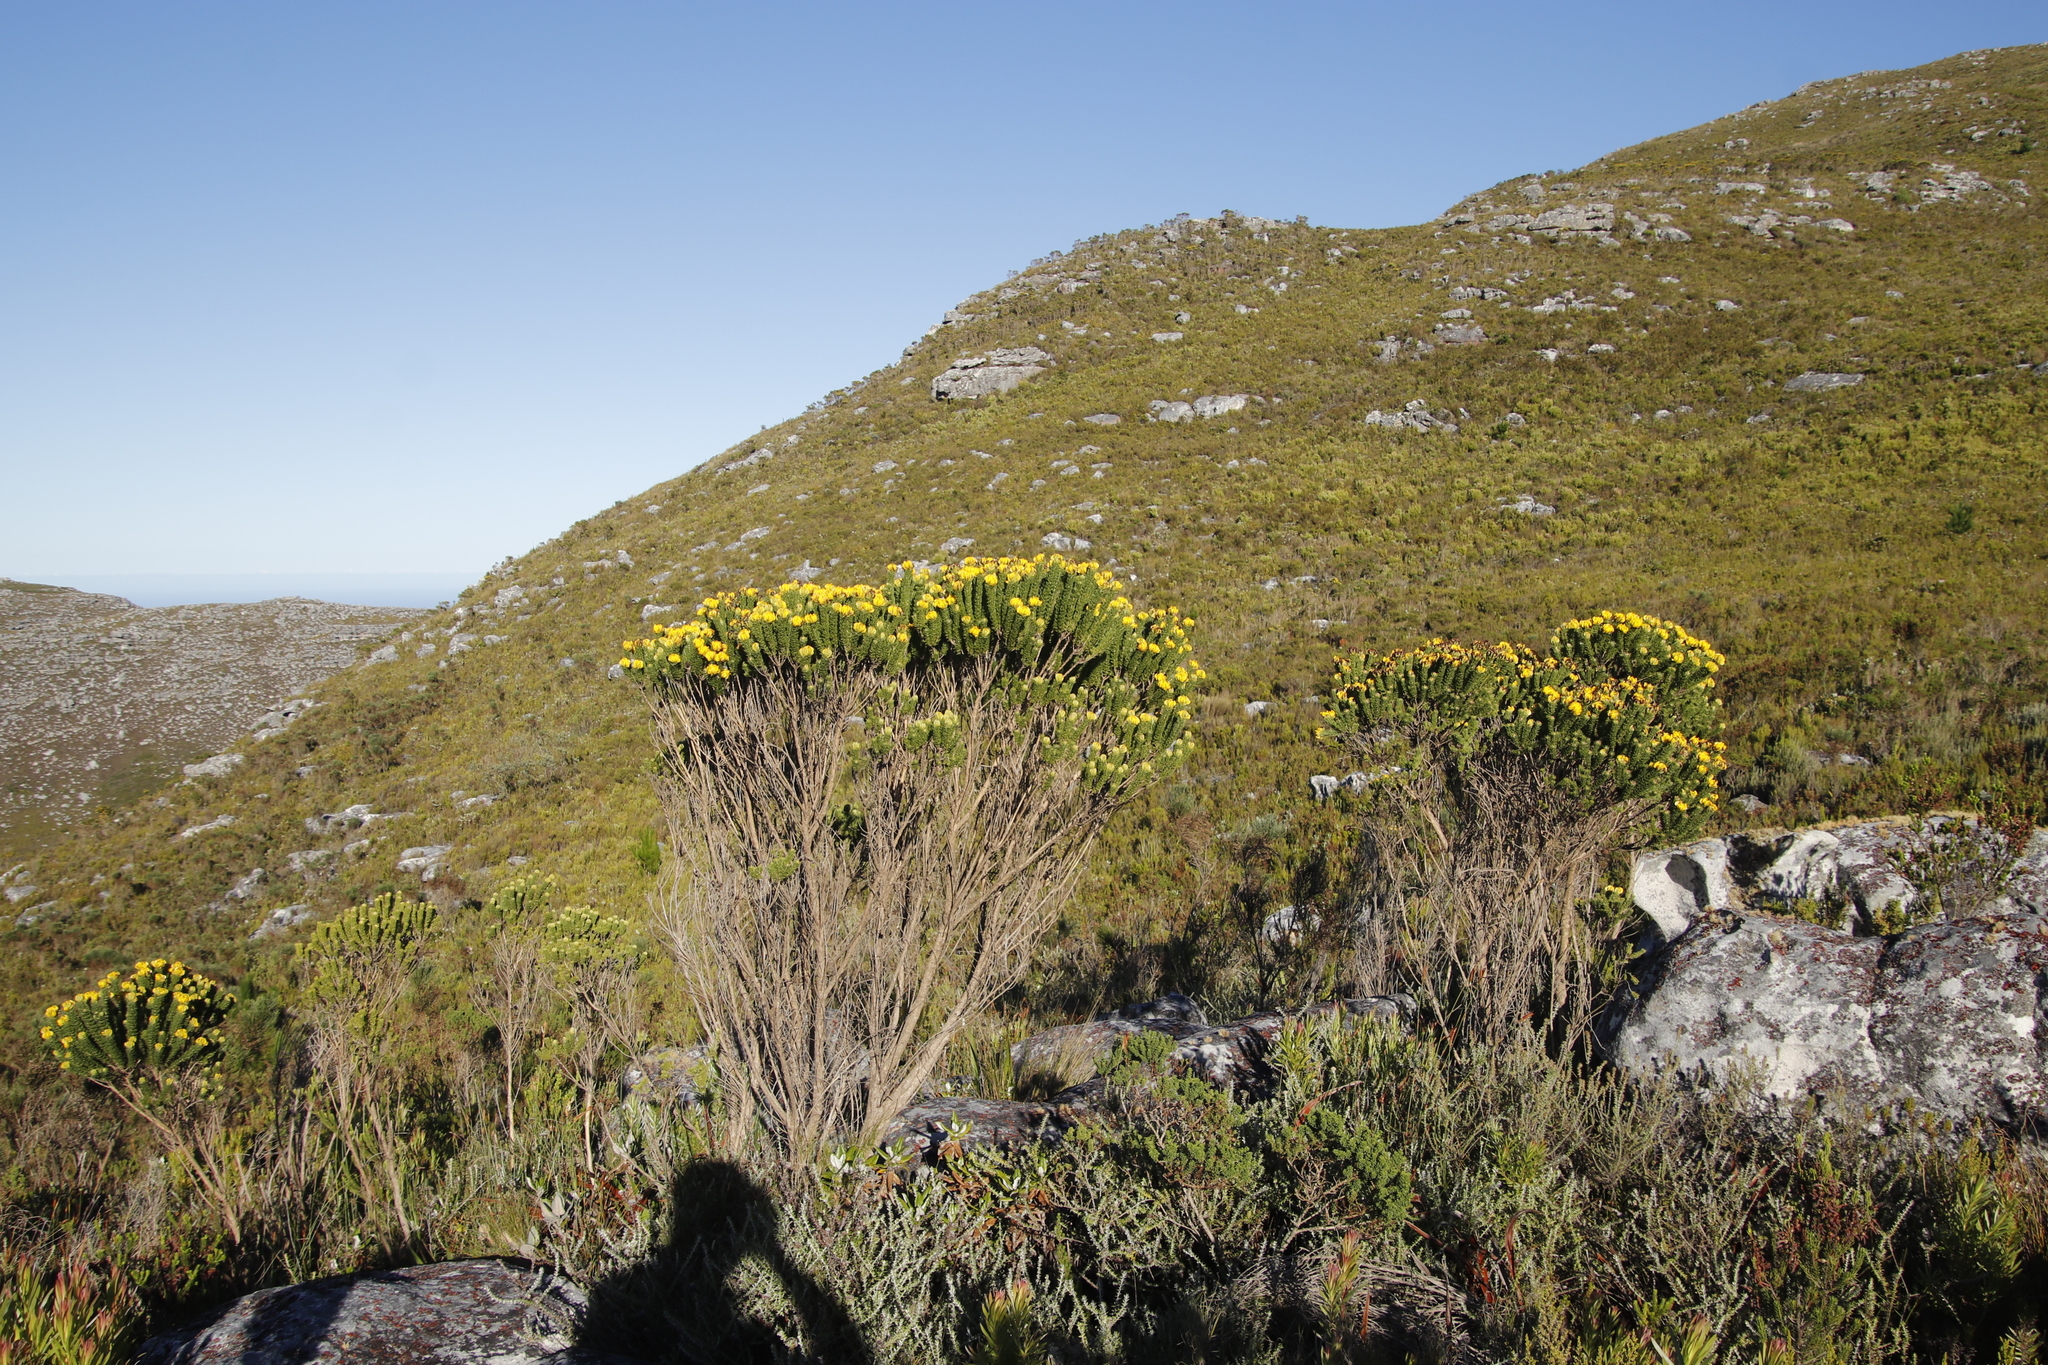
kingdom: Plantae
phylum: Tracheophyta
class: Magnoliopsida
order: Fabales
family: Fabaceae
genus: Aspalathus
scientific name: Aspalathus capitata
